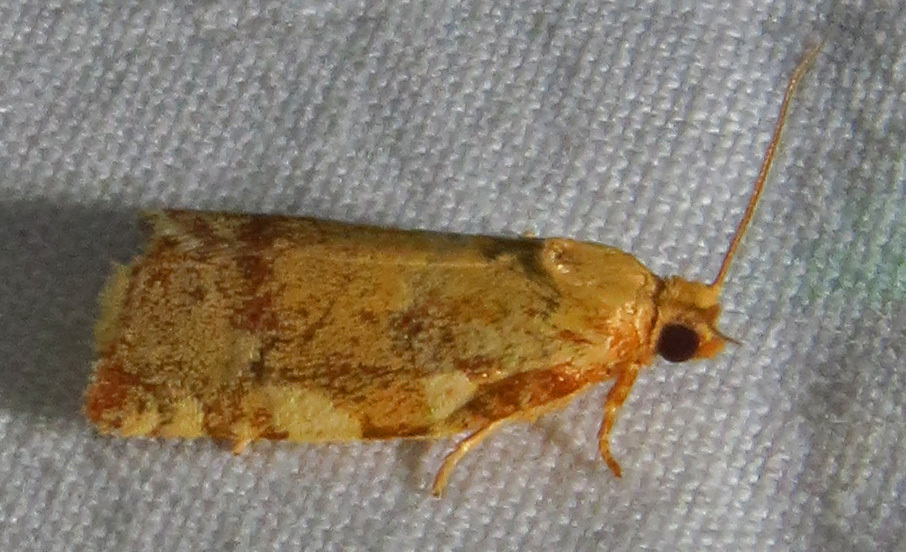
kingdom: Animalia
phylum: Arthropoda
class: Insecta
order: Lepidoptera
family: Tortricidae
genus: Archips
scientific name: Archips argyrospila
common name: Fruit-tree leafroller moth
